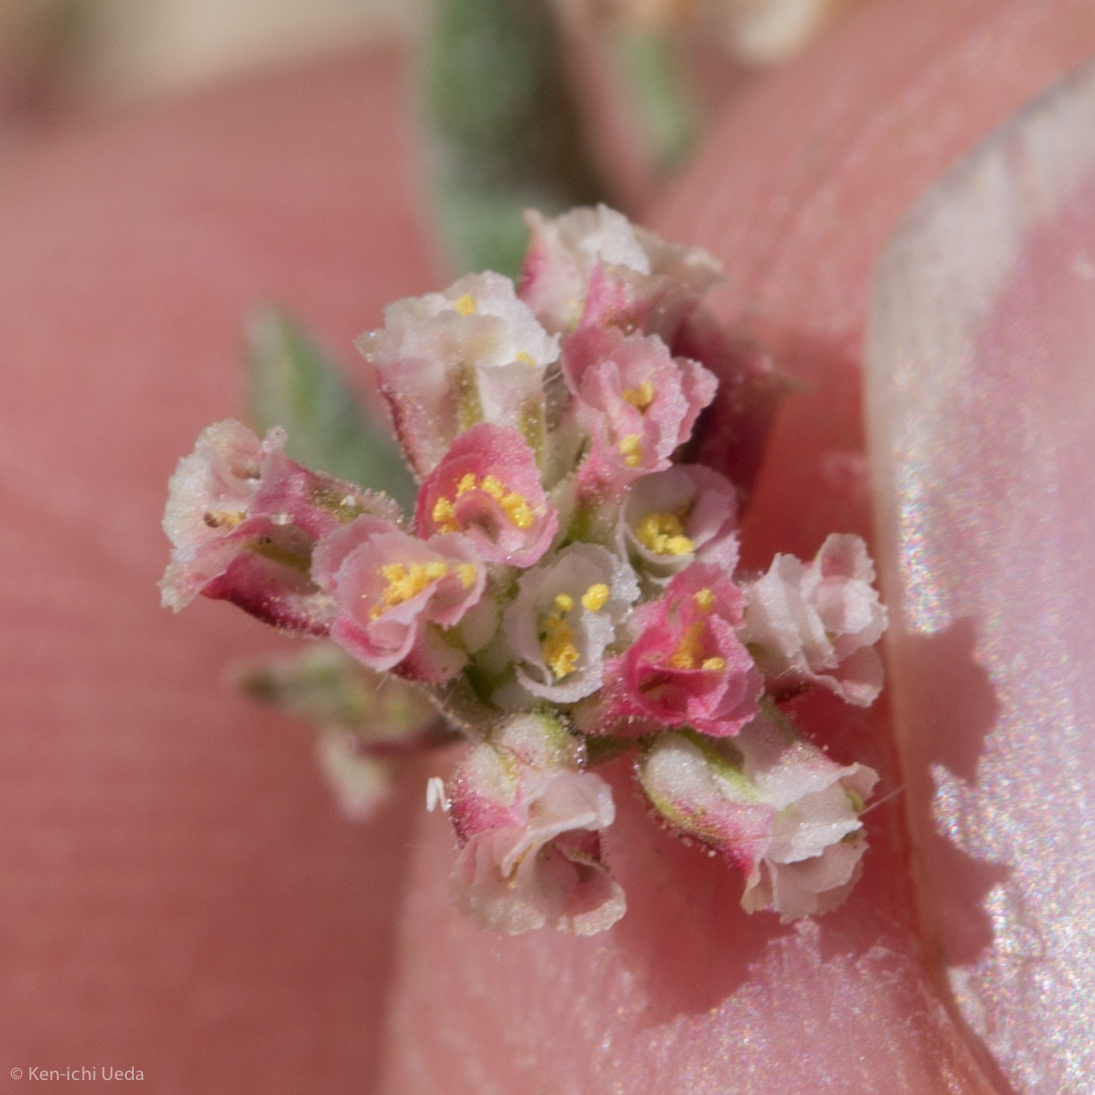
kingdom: Plantae
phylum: Tracheophyta
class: Magnoliopsida
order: Caryophyllales
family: Polygonaceae
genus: Eriogonum
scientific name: Eriogonum gracillimum
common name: Rose-and-white wild buckwheat
